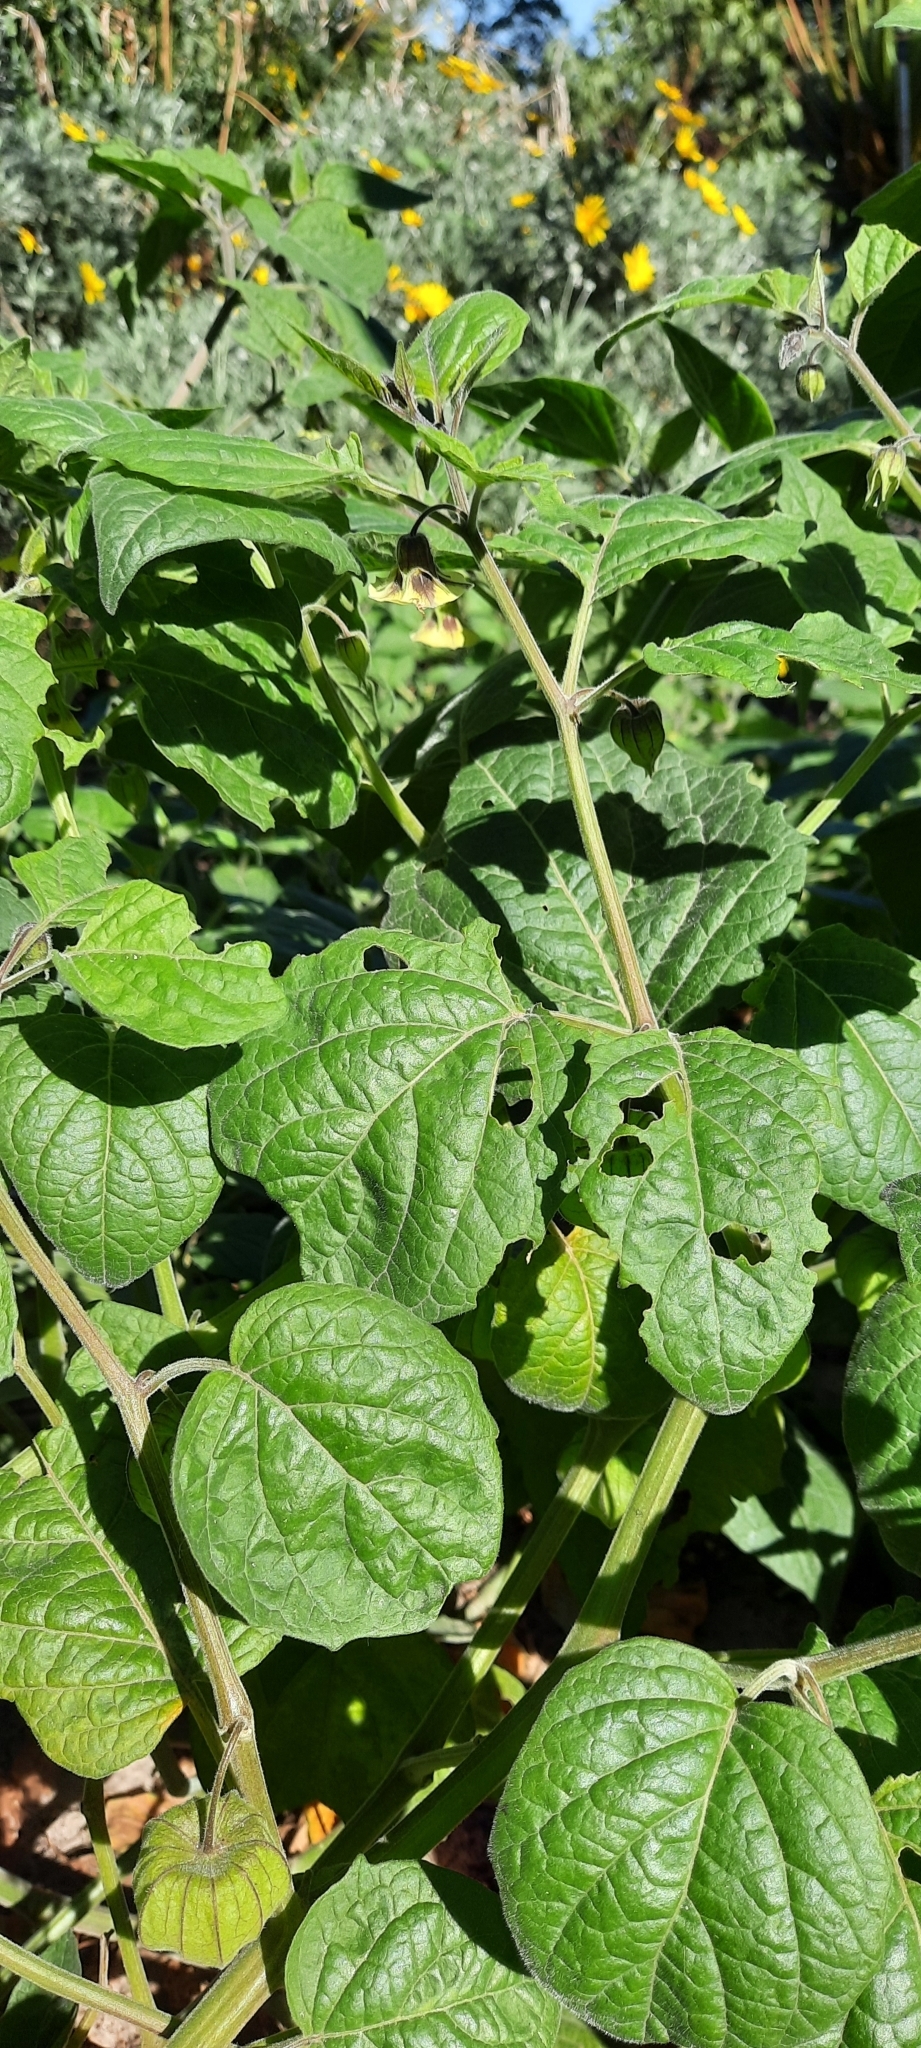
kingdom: Plantae
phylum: Tracheophyta
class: Magnoliopsida
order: Solanales
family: Solanaceae
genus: Physalis
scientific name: Physalis peruviana
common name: Cape-gooseberry
